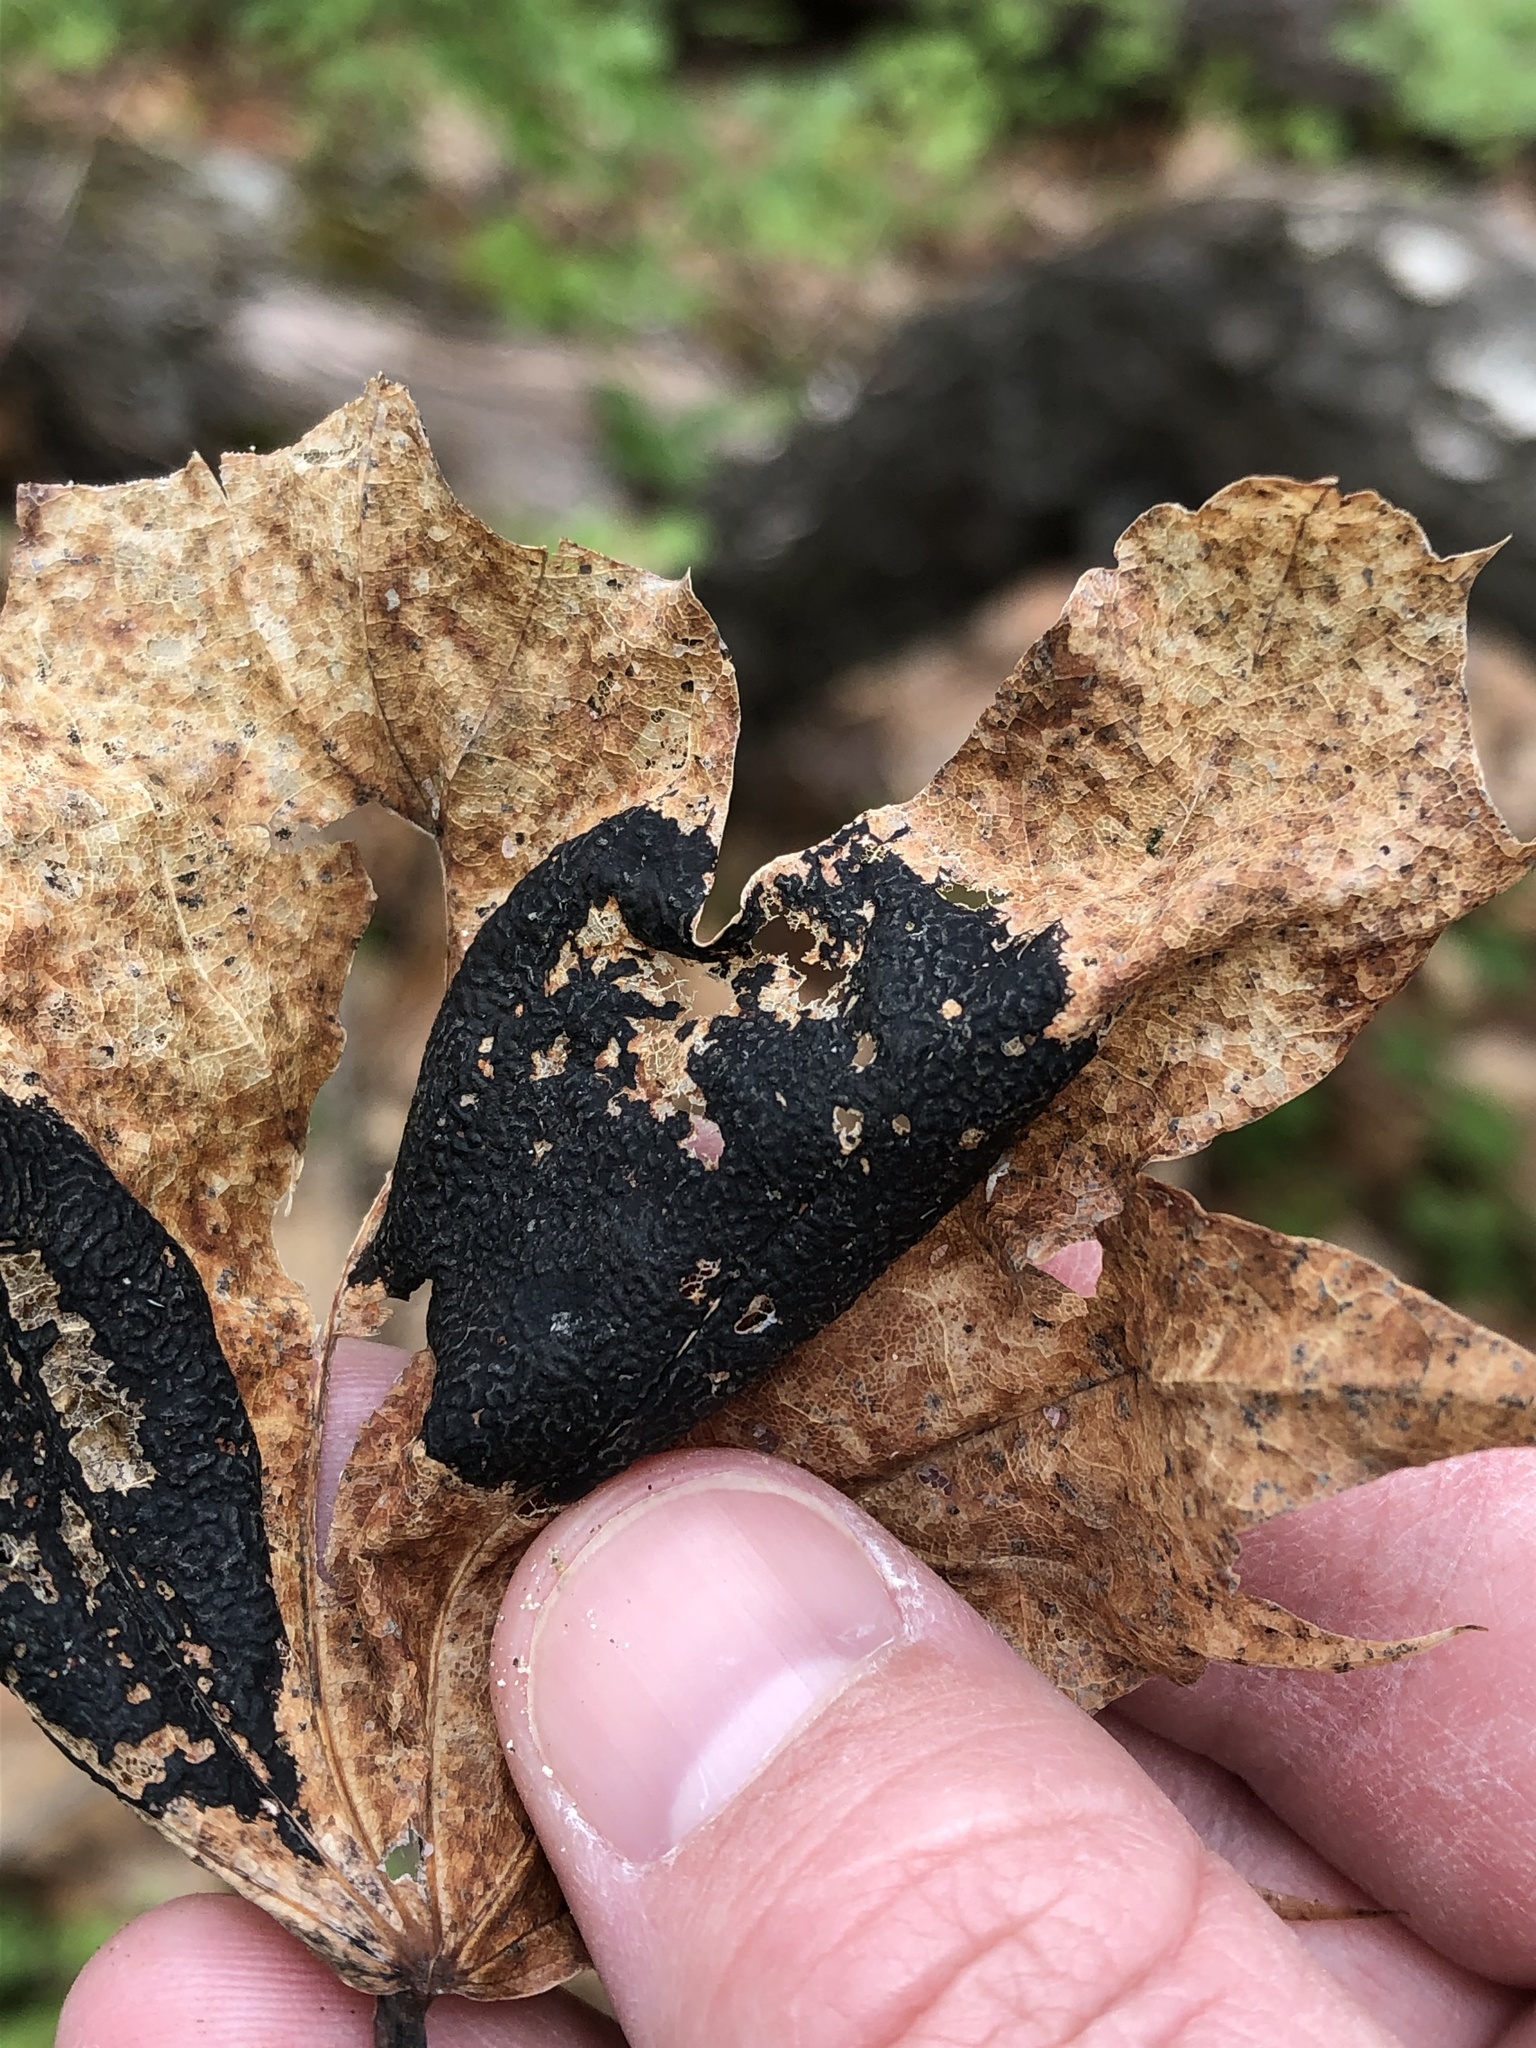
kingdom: Fungi
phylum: Ascomycota
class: Leotiomycetes
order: Rhytismatales
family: Rhytismataceae
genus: Rhytisma
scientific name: Rhytisma acerinum
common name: European tar spot
